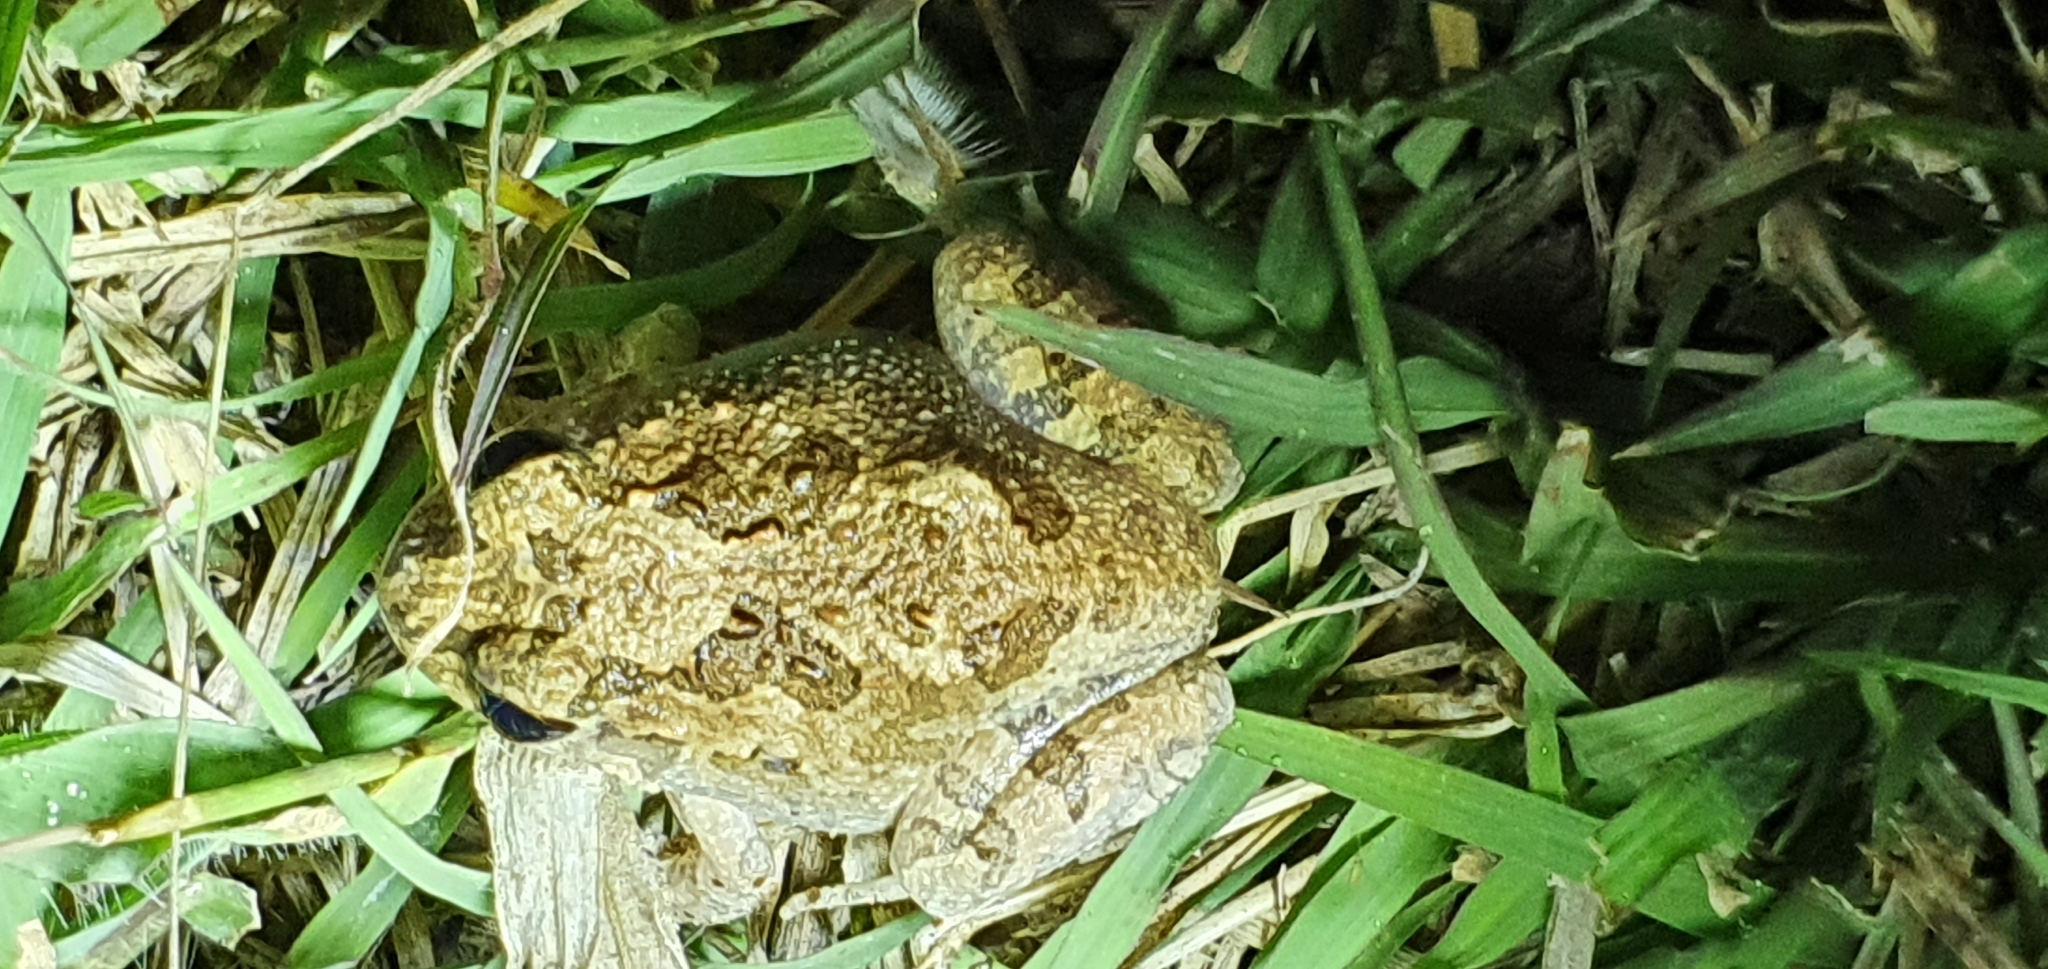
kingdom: Animalia
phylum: Chordata
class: Amphibia
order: Anura
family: Limnodynastidae
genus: Platyplectrum
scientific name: Platyplectrum ornatum
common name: Ornate burrowing frog
